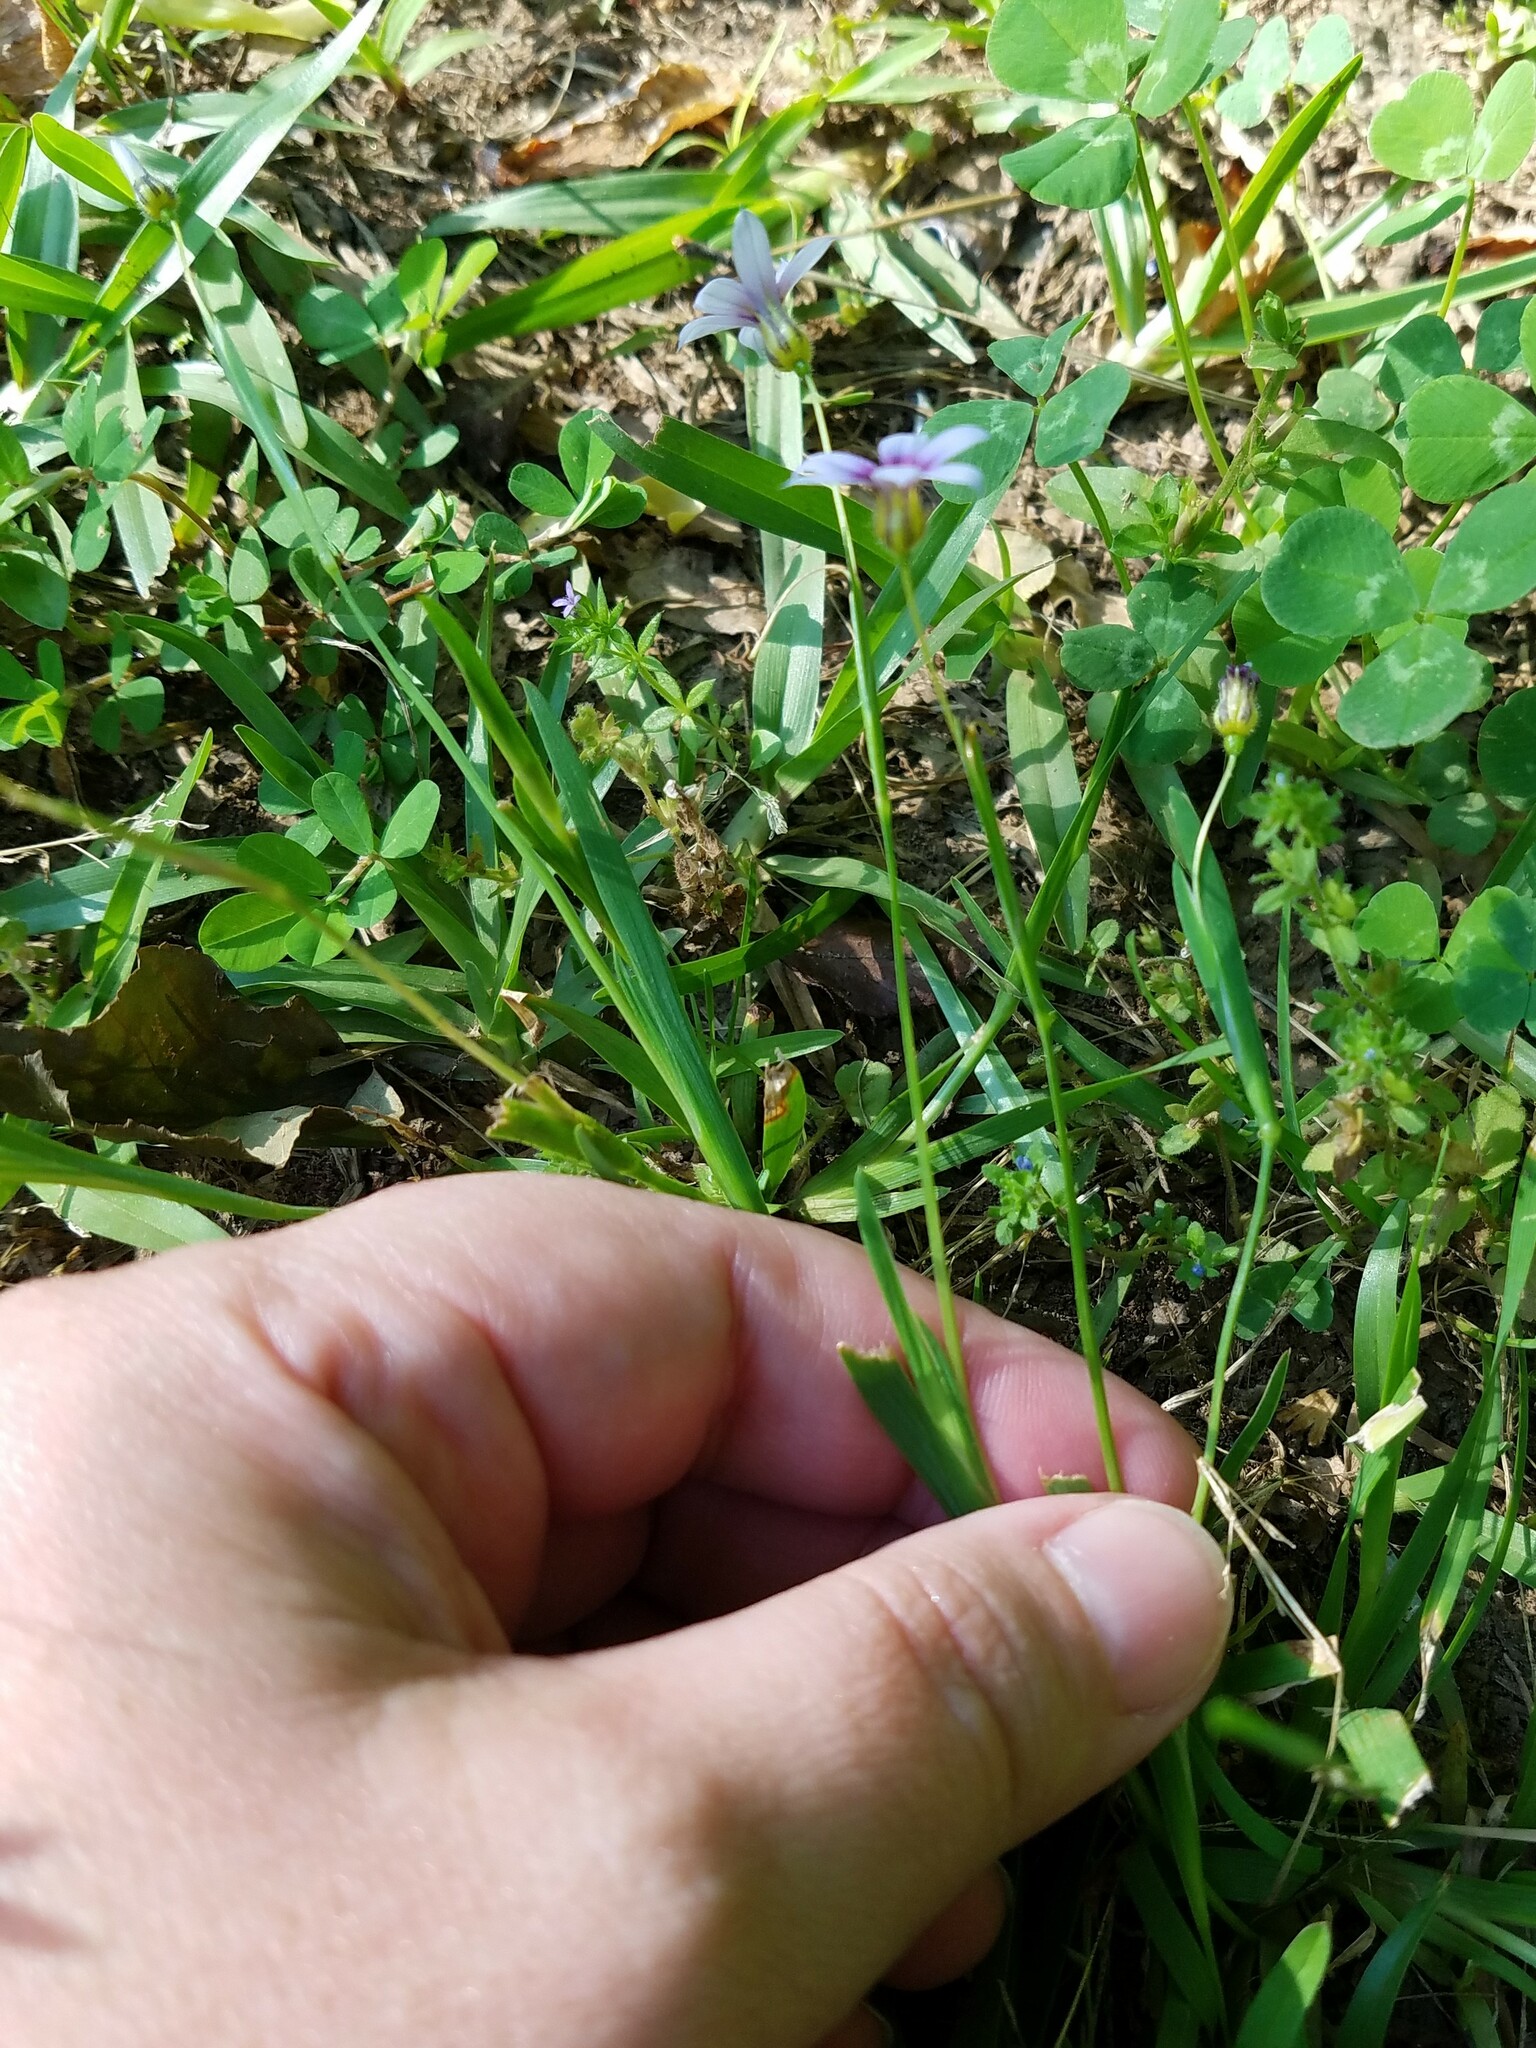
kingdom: Plantae
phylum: Tracheophyta
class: Liliopsida
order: Asparagales
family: Iridaceae
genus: Sisyrinchium
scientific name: Sisyrinchium micranthum
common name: Bermuda pigroot
